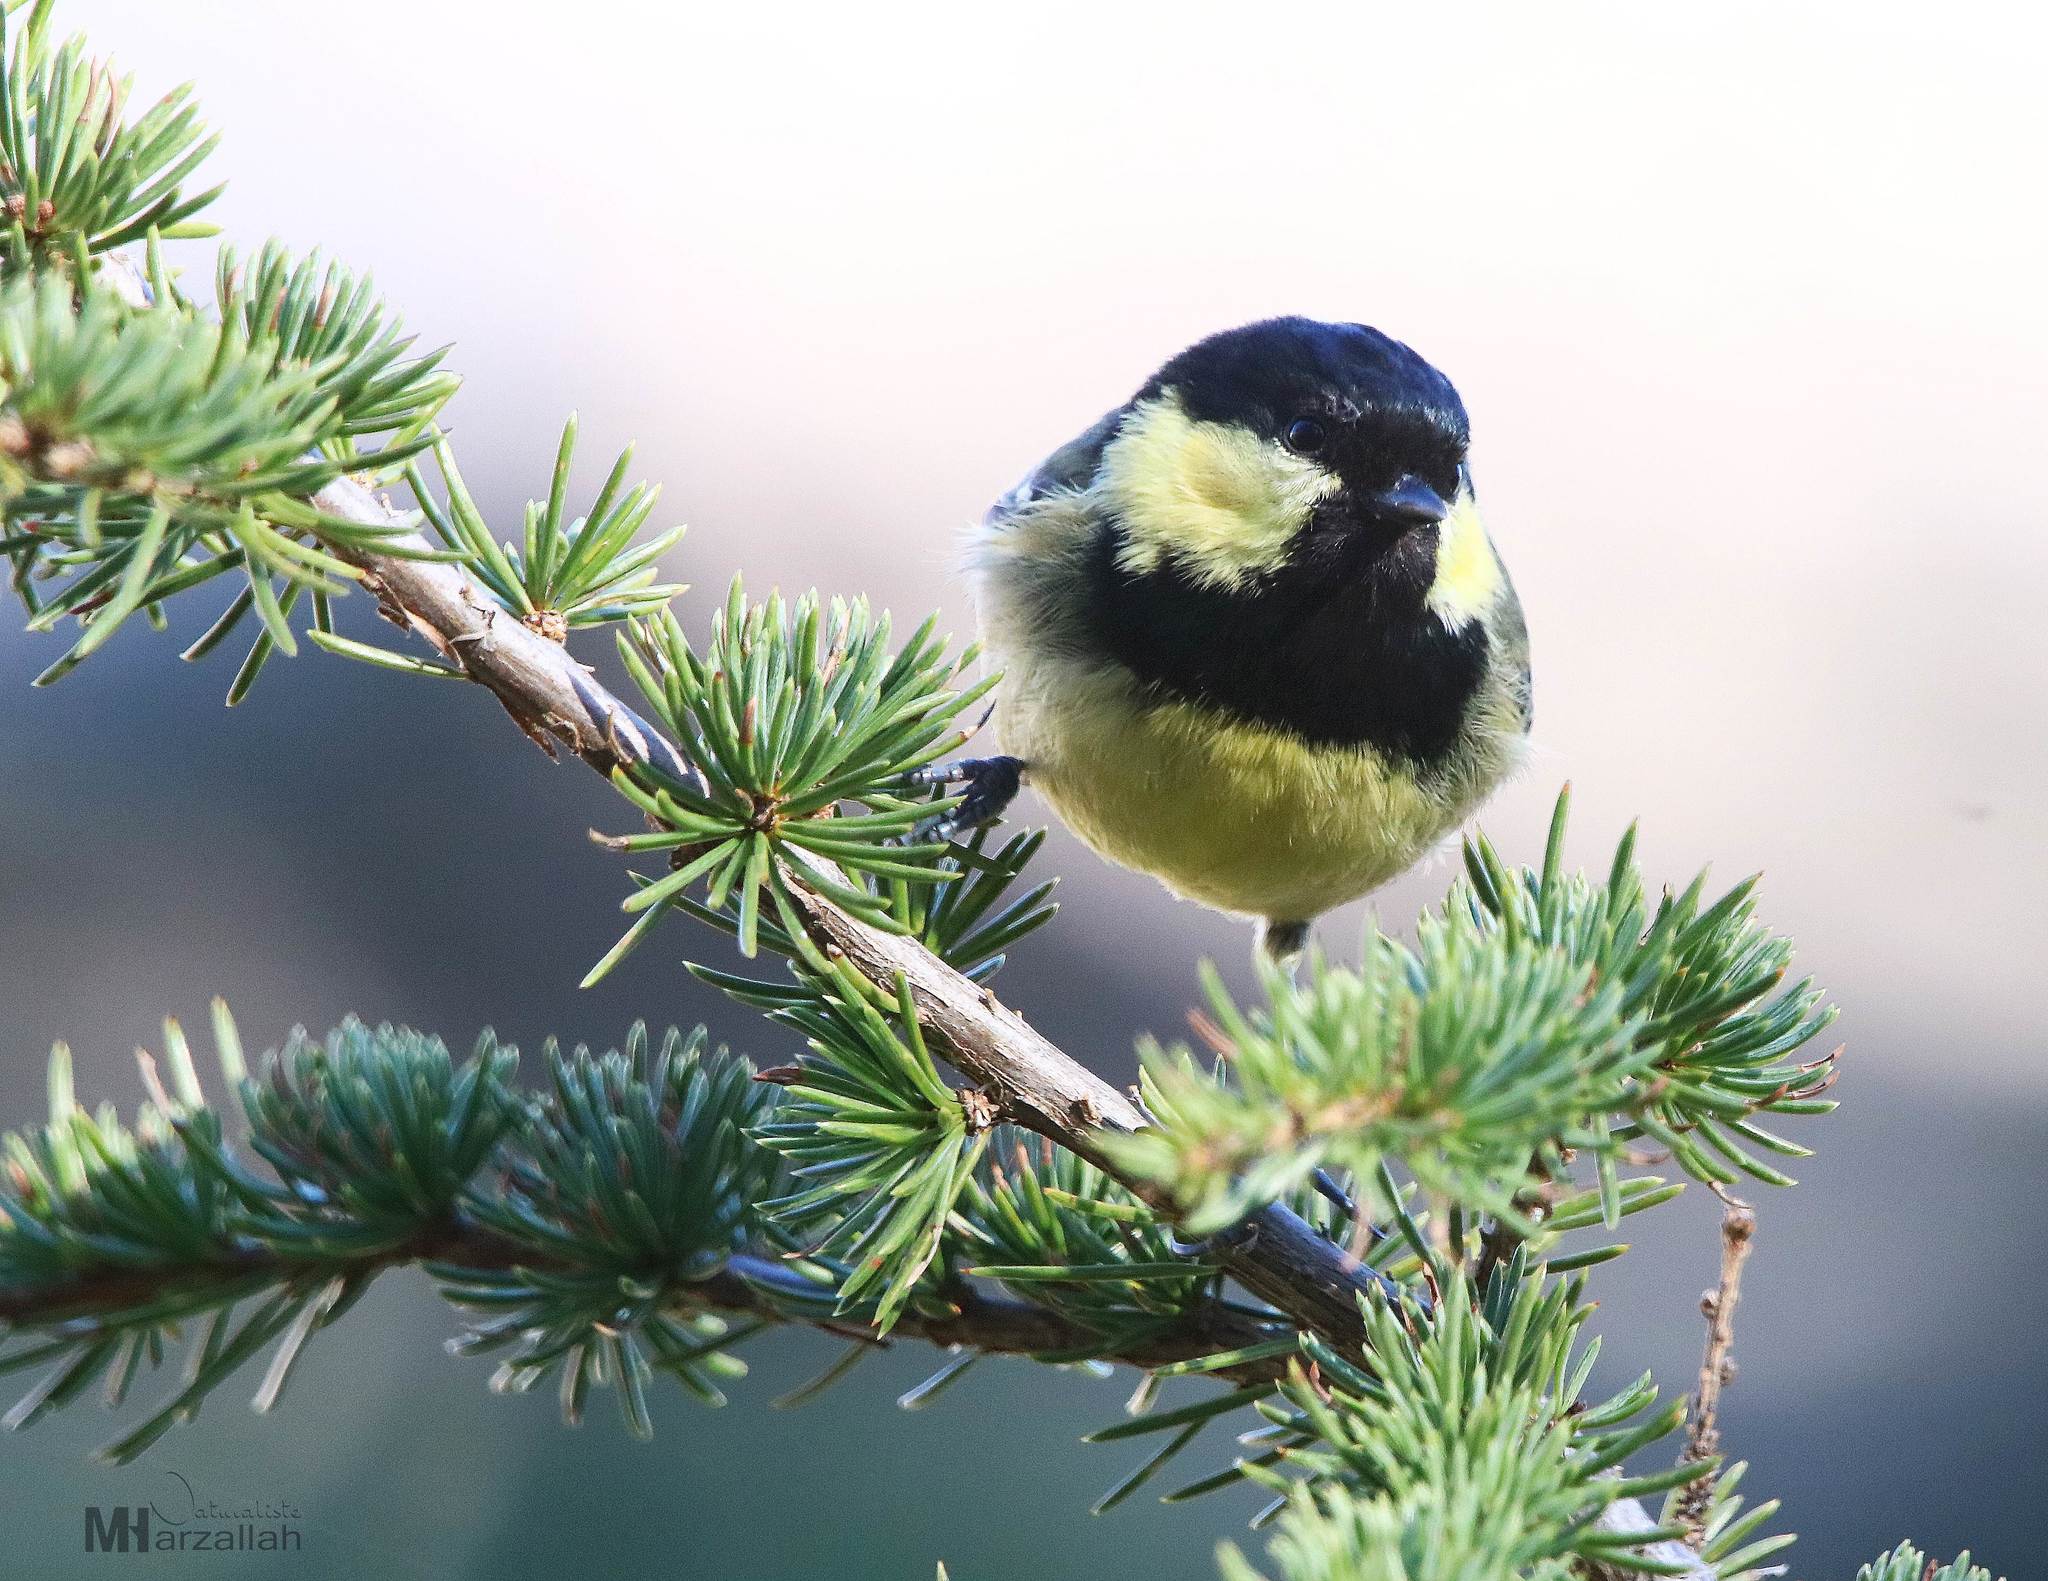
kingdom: Animalia
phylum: Chordata
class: Aves
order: Passeriformes
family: Paridae
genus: Periparus
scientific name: Periparus ater
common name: Coal tit
